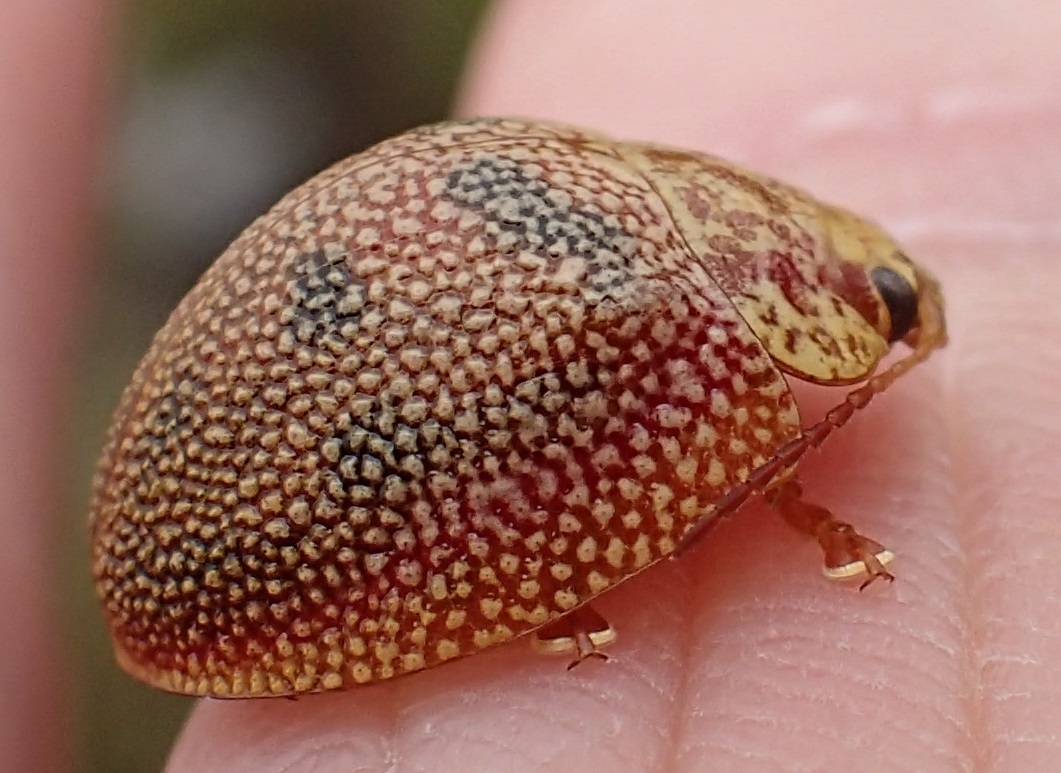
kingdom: Animalia
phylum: Arthropoda
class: Insecta
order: Coleoptera
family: Chrysomelidae
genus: Paropsis
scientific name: Paropsis
